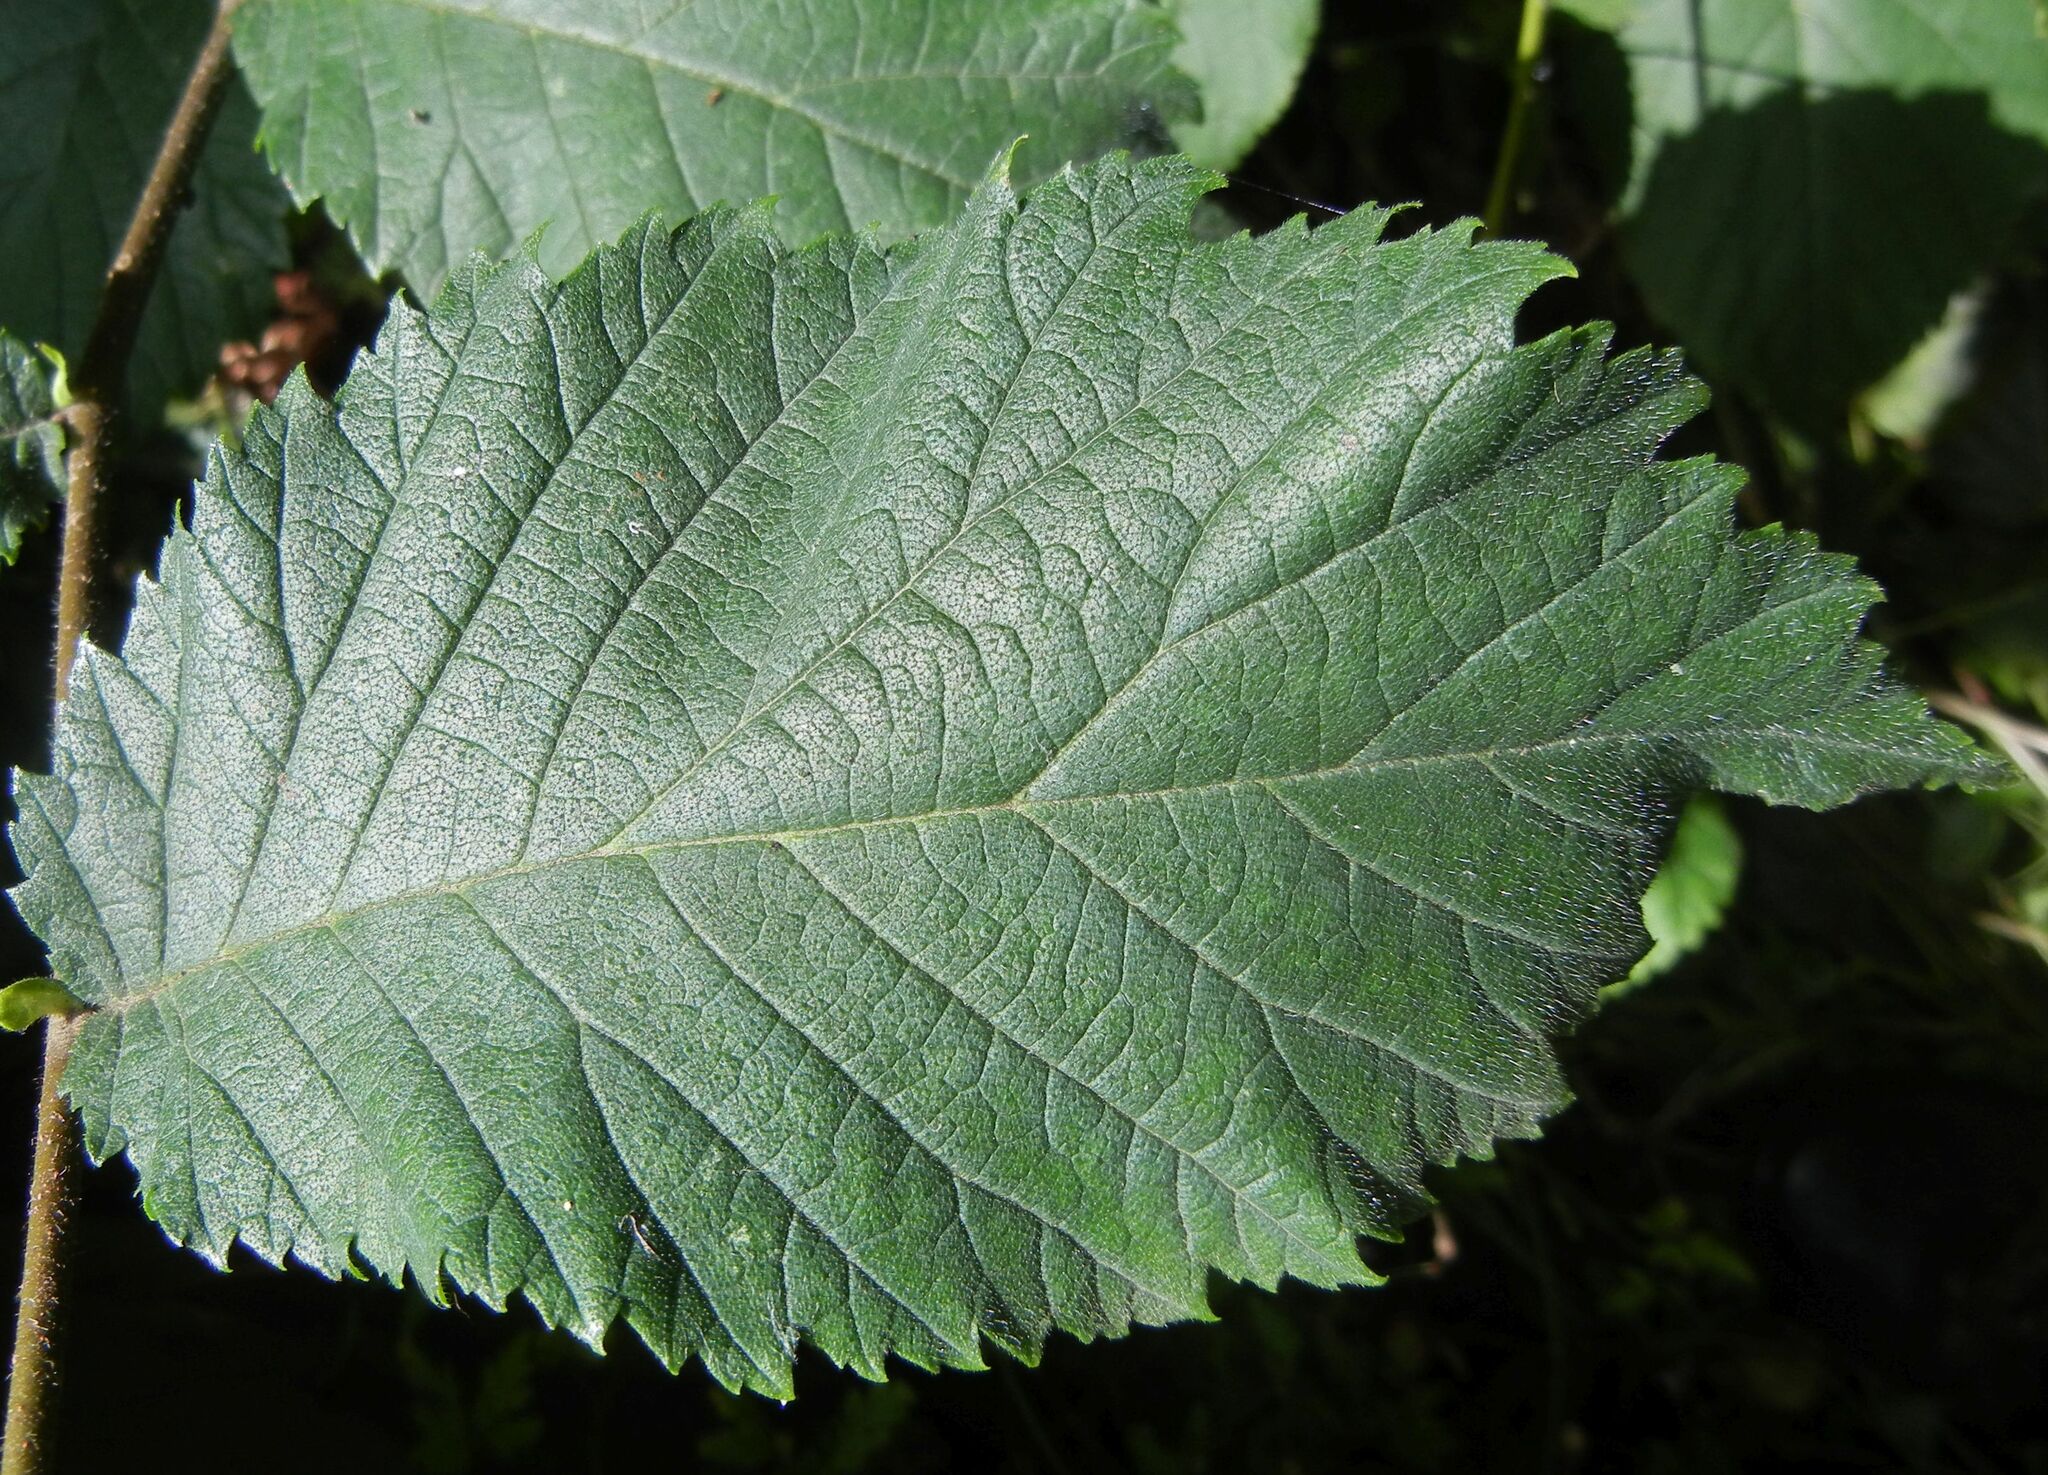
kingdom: Plantae
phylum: Tracheophyta
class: Magnoliopsida
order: Rosales
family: Ulmaceae
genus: Ulmus
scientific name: Ulmus glabra
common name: Wych elm
